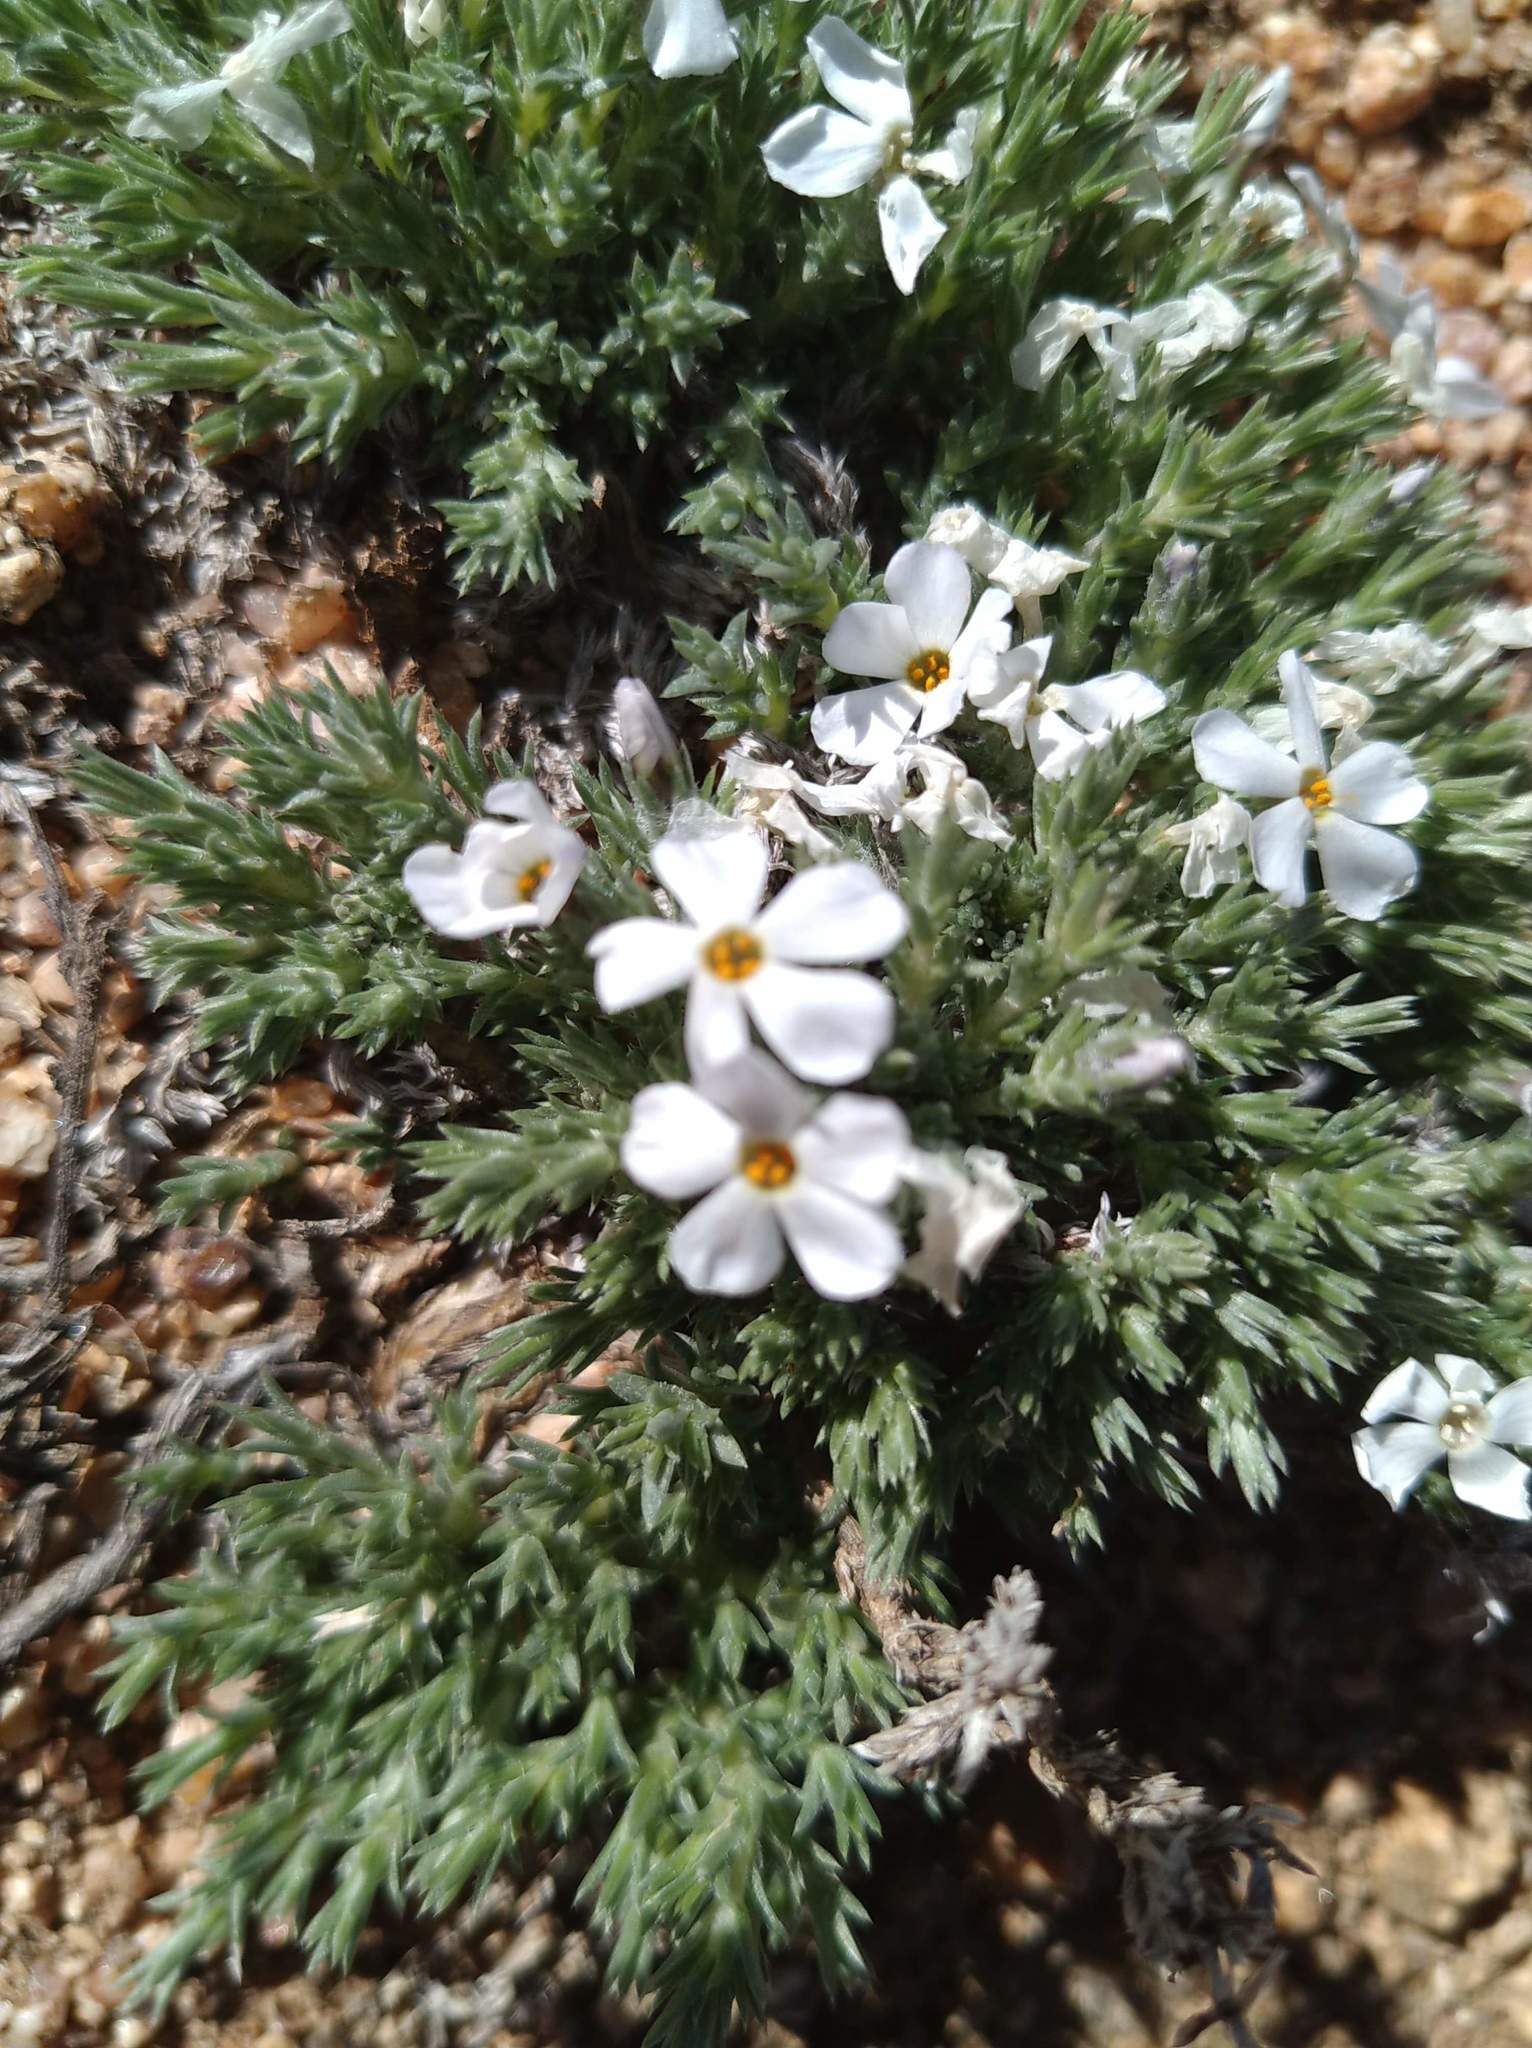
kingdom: Plantae
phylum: Tracheophyta
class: Magnoliopsida
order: Ericales
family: Polemoniaceae
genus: Phlox
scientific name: Phlox hoodii
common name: Moss phlox
